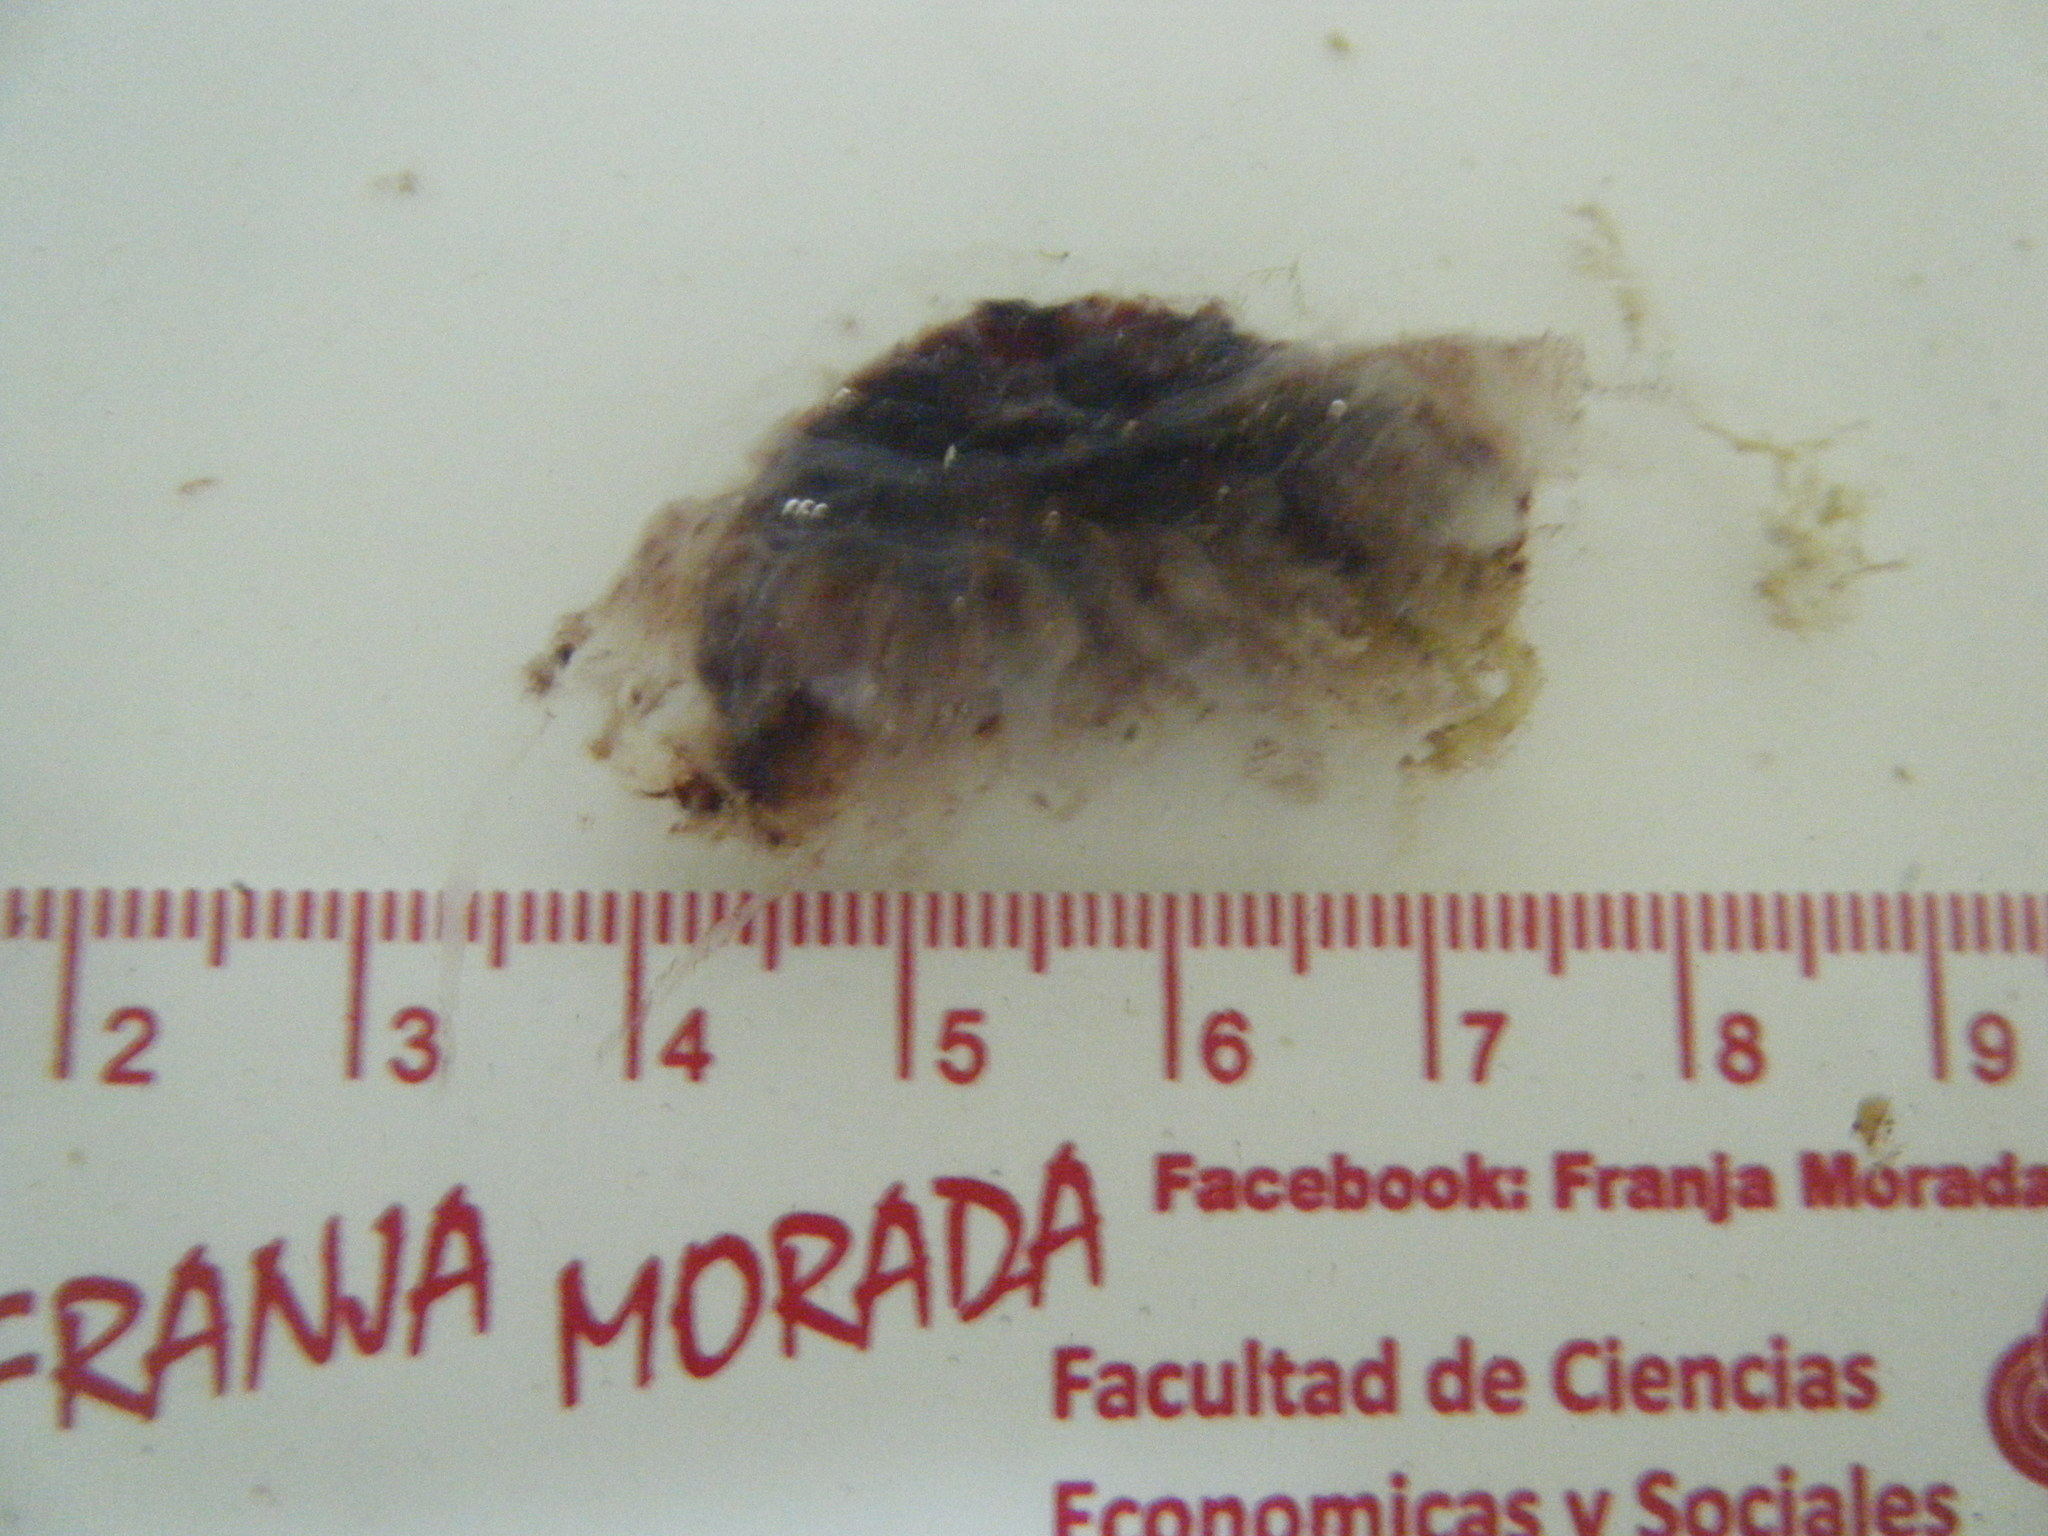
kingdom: Animalia
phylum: Cnidaria
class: Scyphozoa
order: Coronatae
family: Periphyllidae
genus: Periphylla
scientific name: Periphylla periphylla
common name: Helmet jelly
